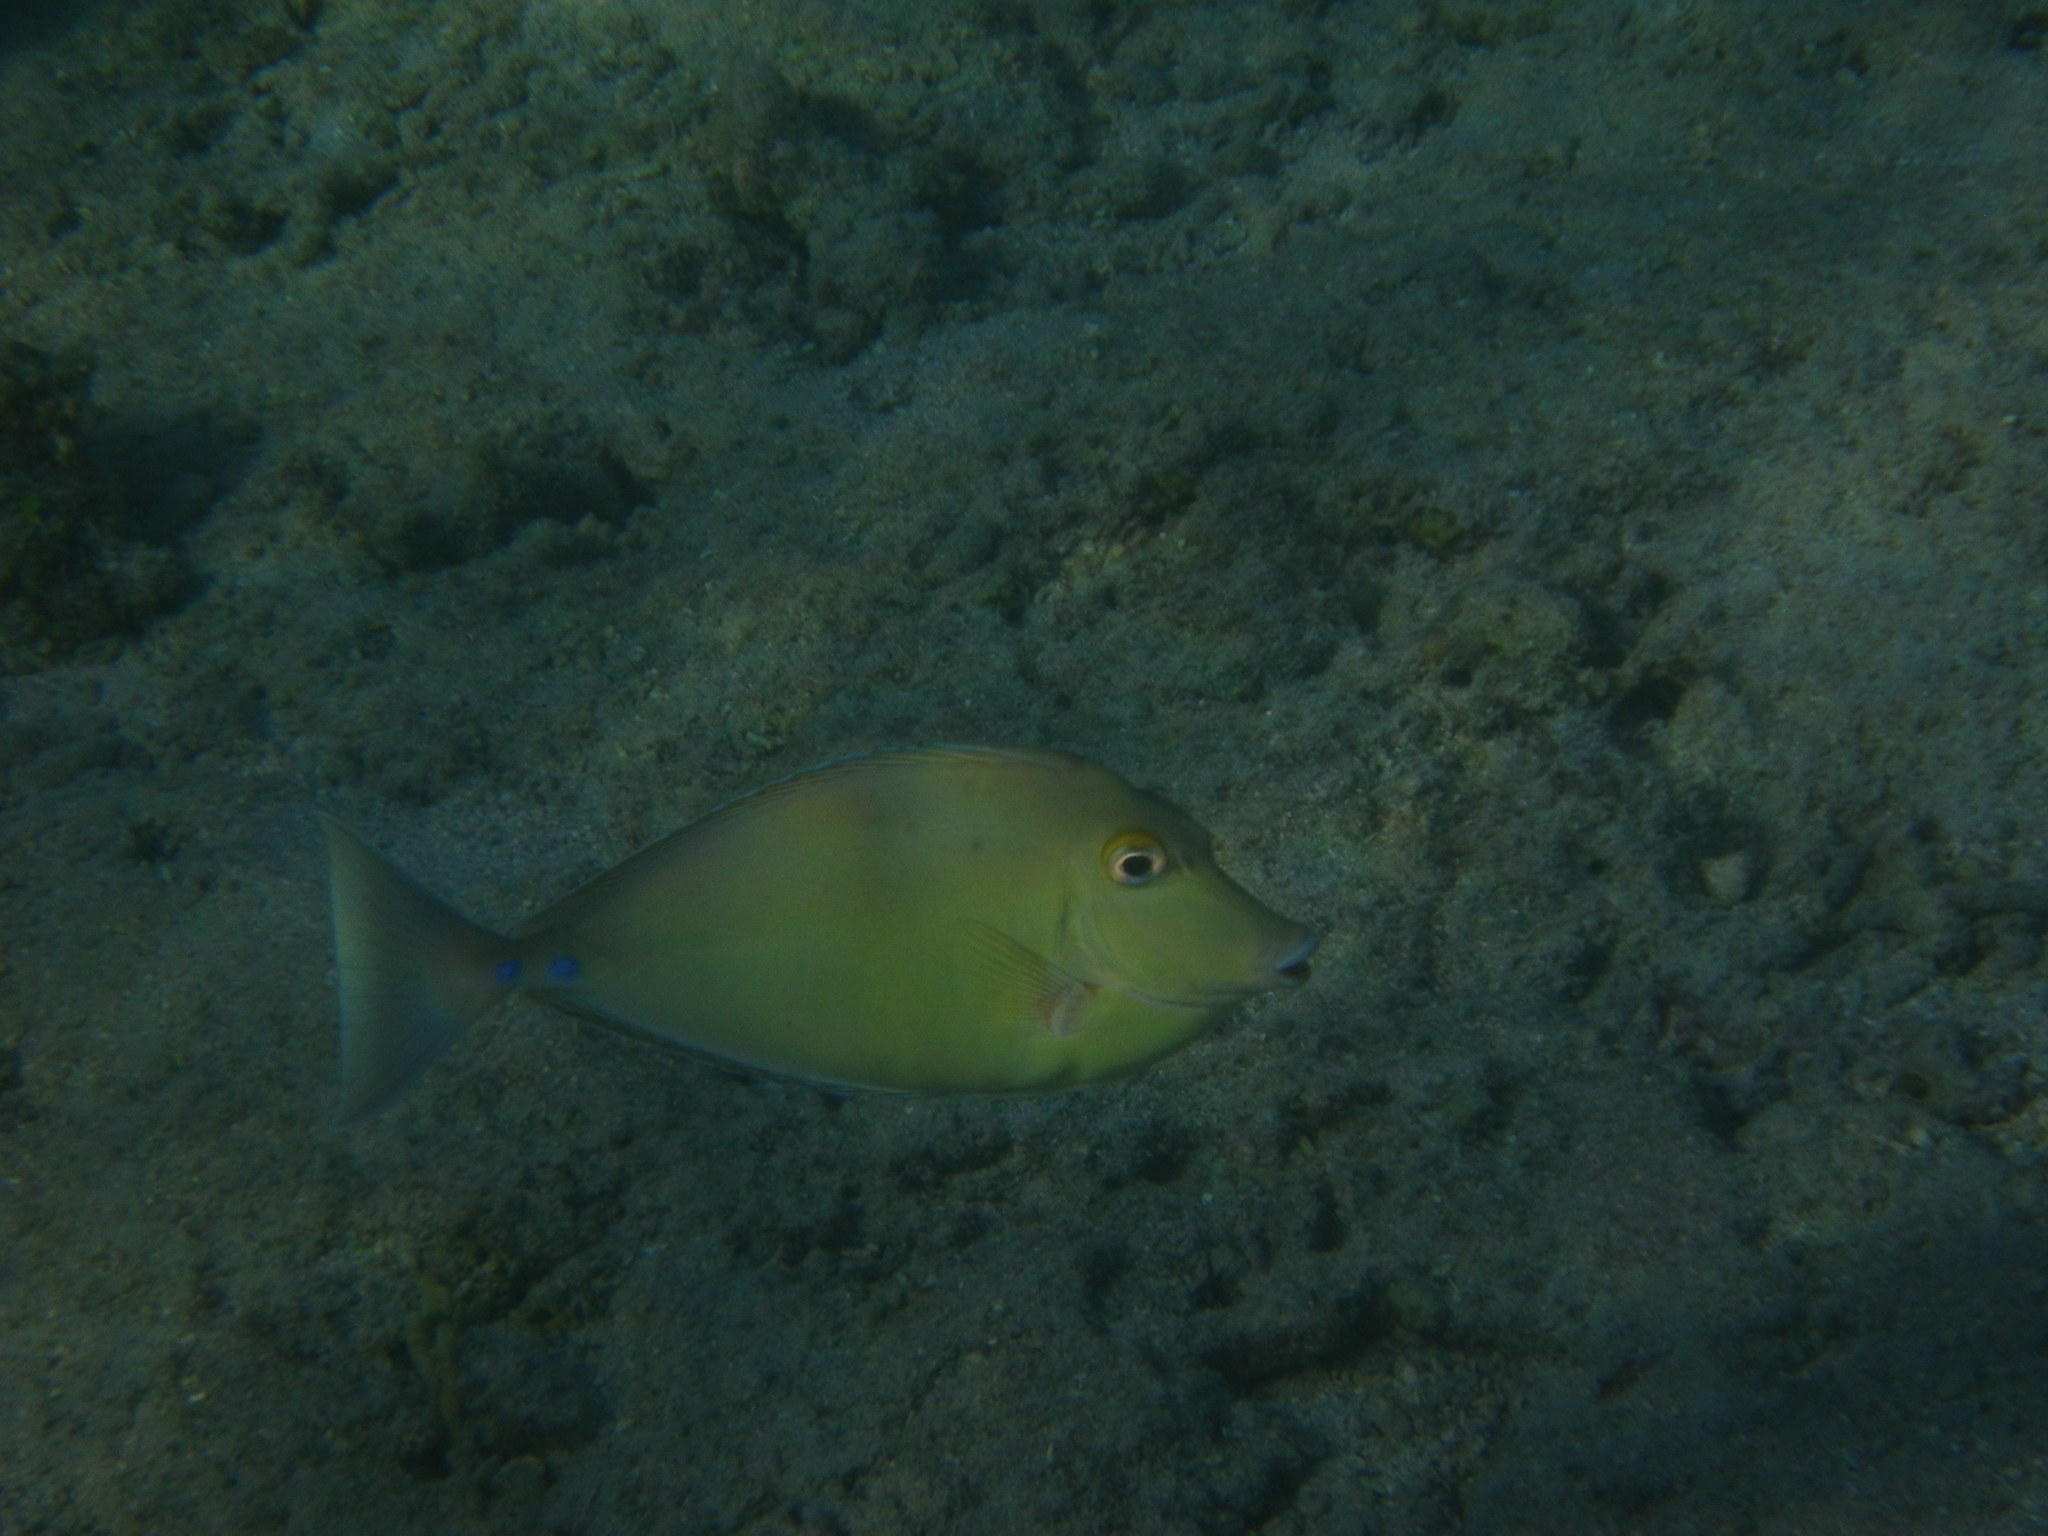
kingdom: Animalia
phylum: Chordata
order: Perciformes
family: Acanthuridae
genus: Naso
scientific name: Naso unicornis
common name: Bluespine unicornfish
